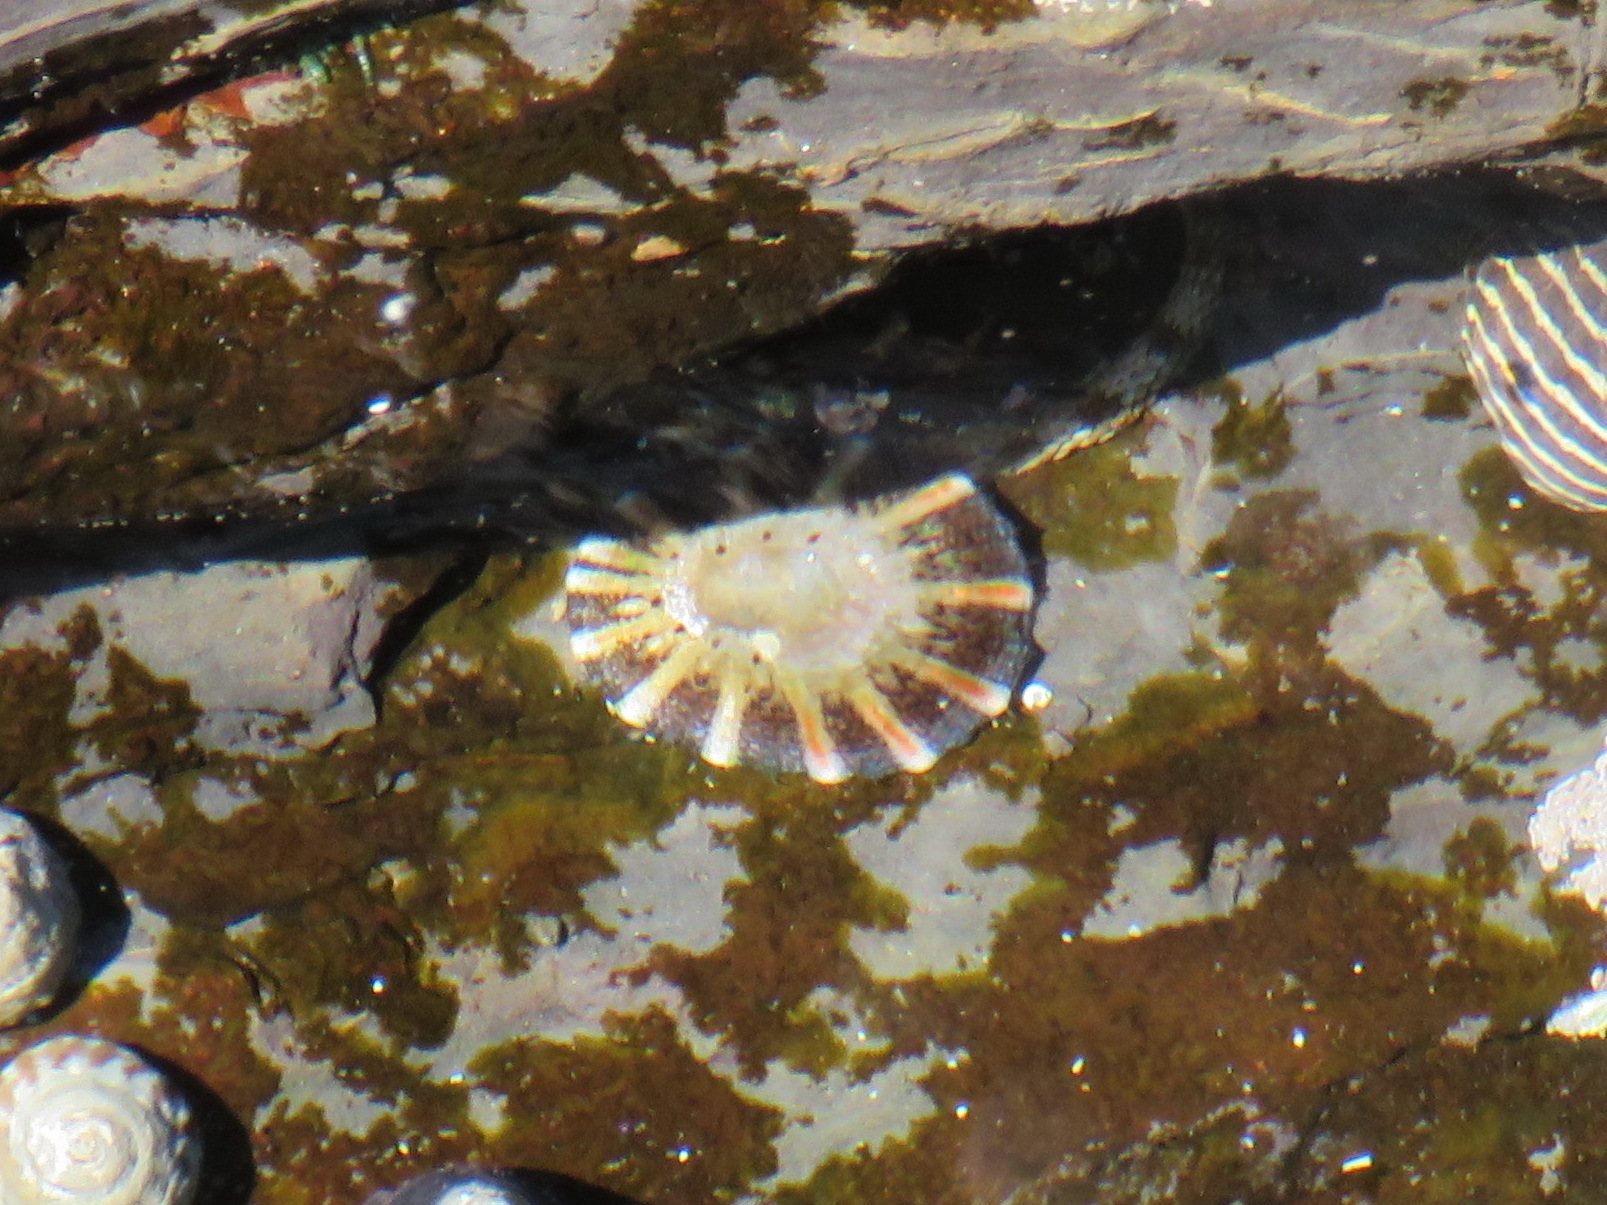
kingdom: Animalia
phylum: Mollusca
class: Gastropoda
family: Nacellidae
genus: Cellana
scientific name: Cellana tramoserica
